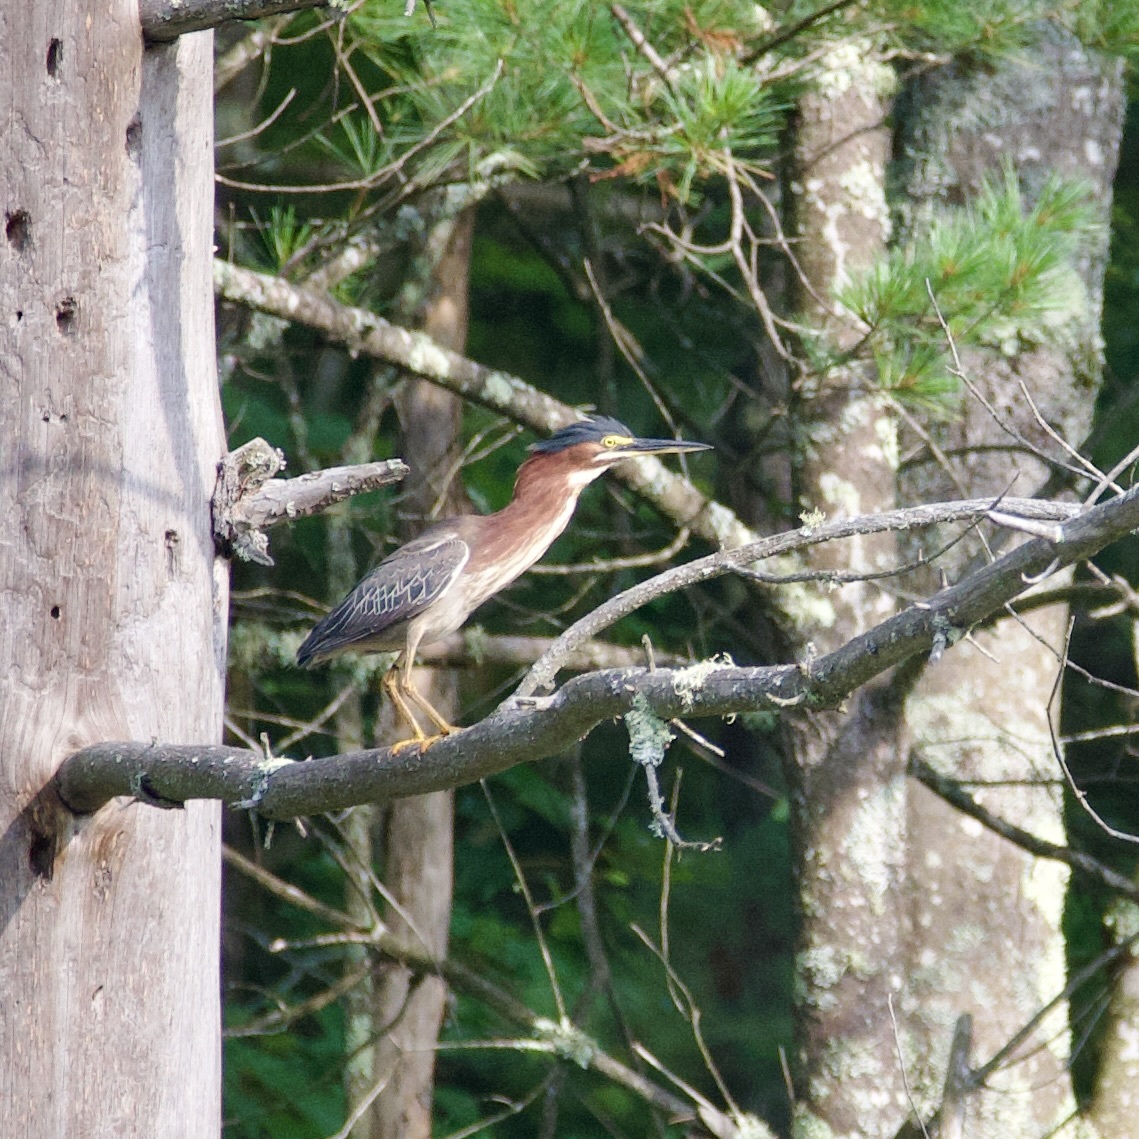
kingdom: Animalia
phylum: Chordata
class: Aves
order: Pelecaniformes
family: Ardeidae
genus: Butorides
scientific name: Butorides virescens
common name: Green heron
